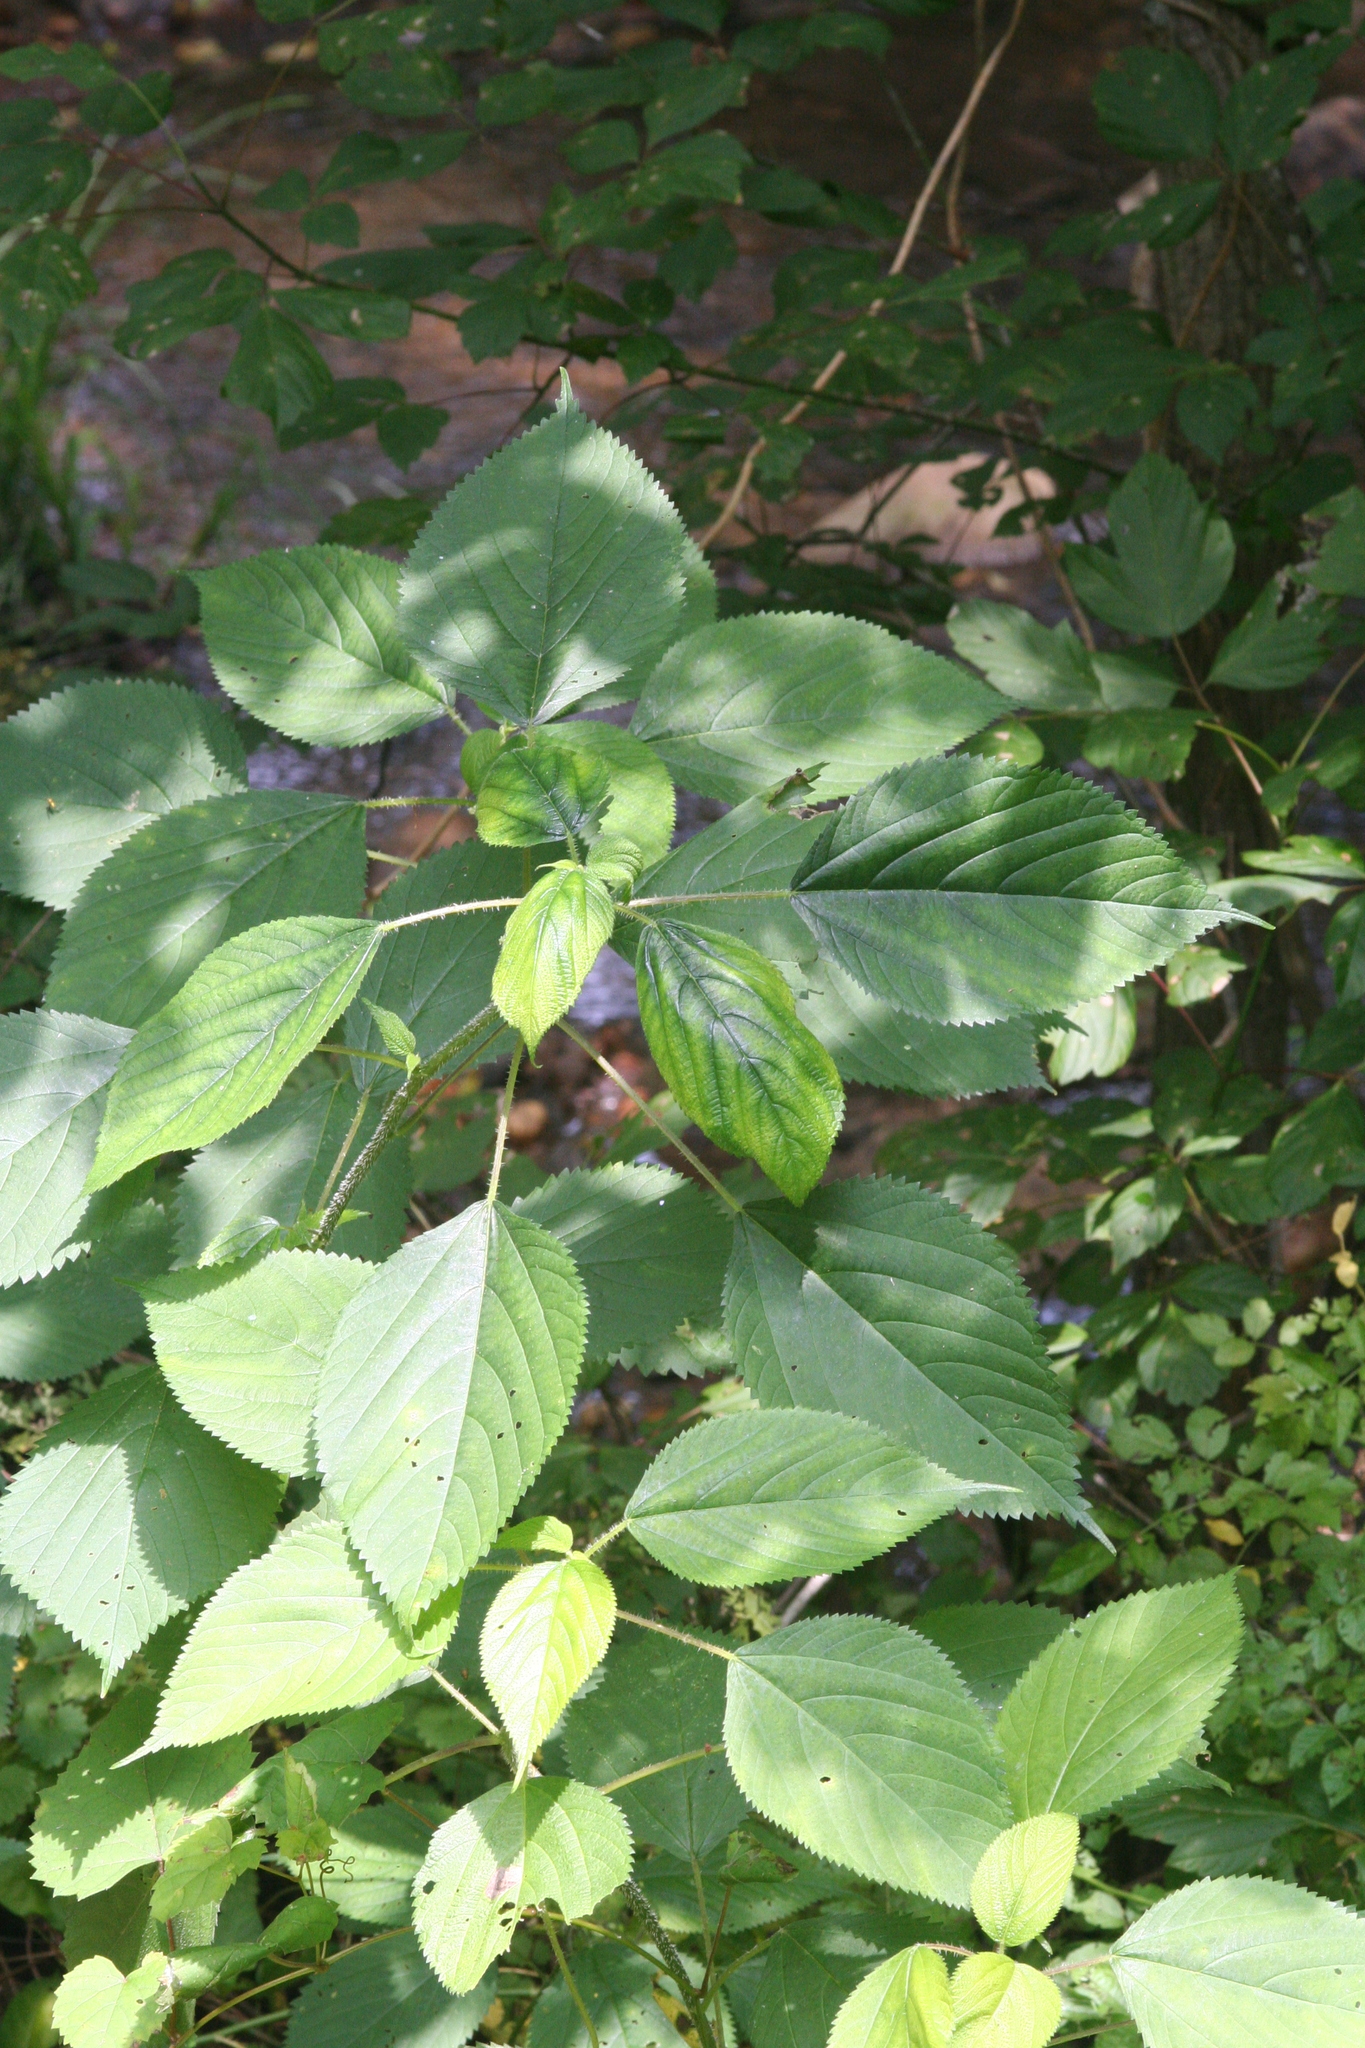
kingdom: Plantae
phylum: Tracheophyta
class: Magnoliopsida
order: Rosales
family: Urticaceae
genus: Laportea
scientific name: Laportea canadensis
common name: Canada nettle
